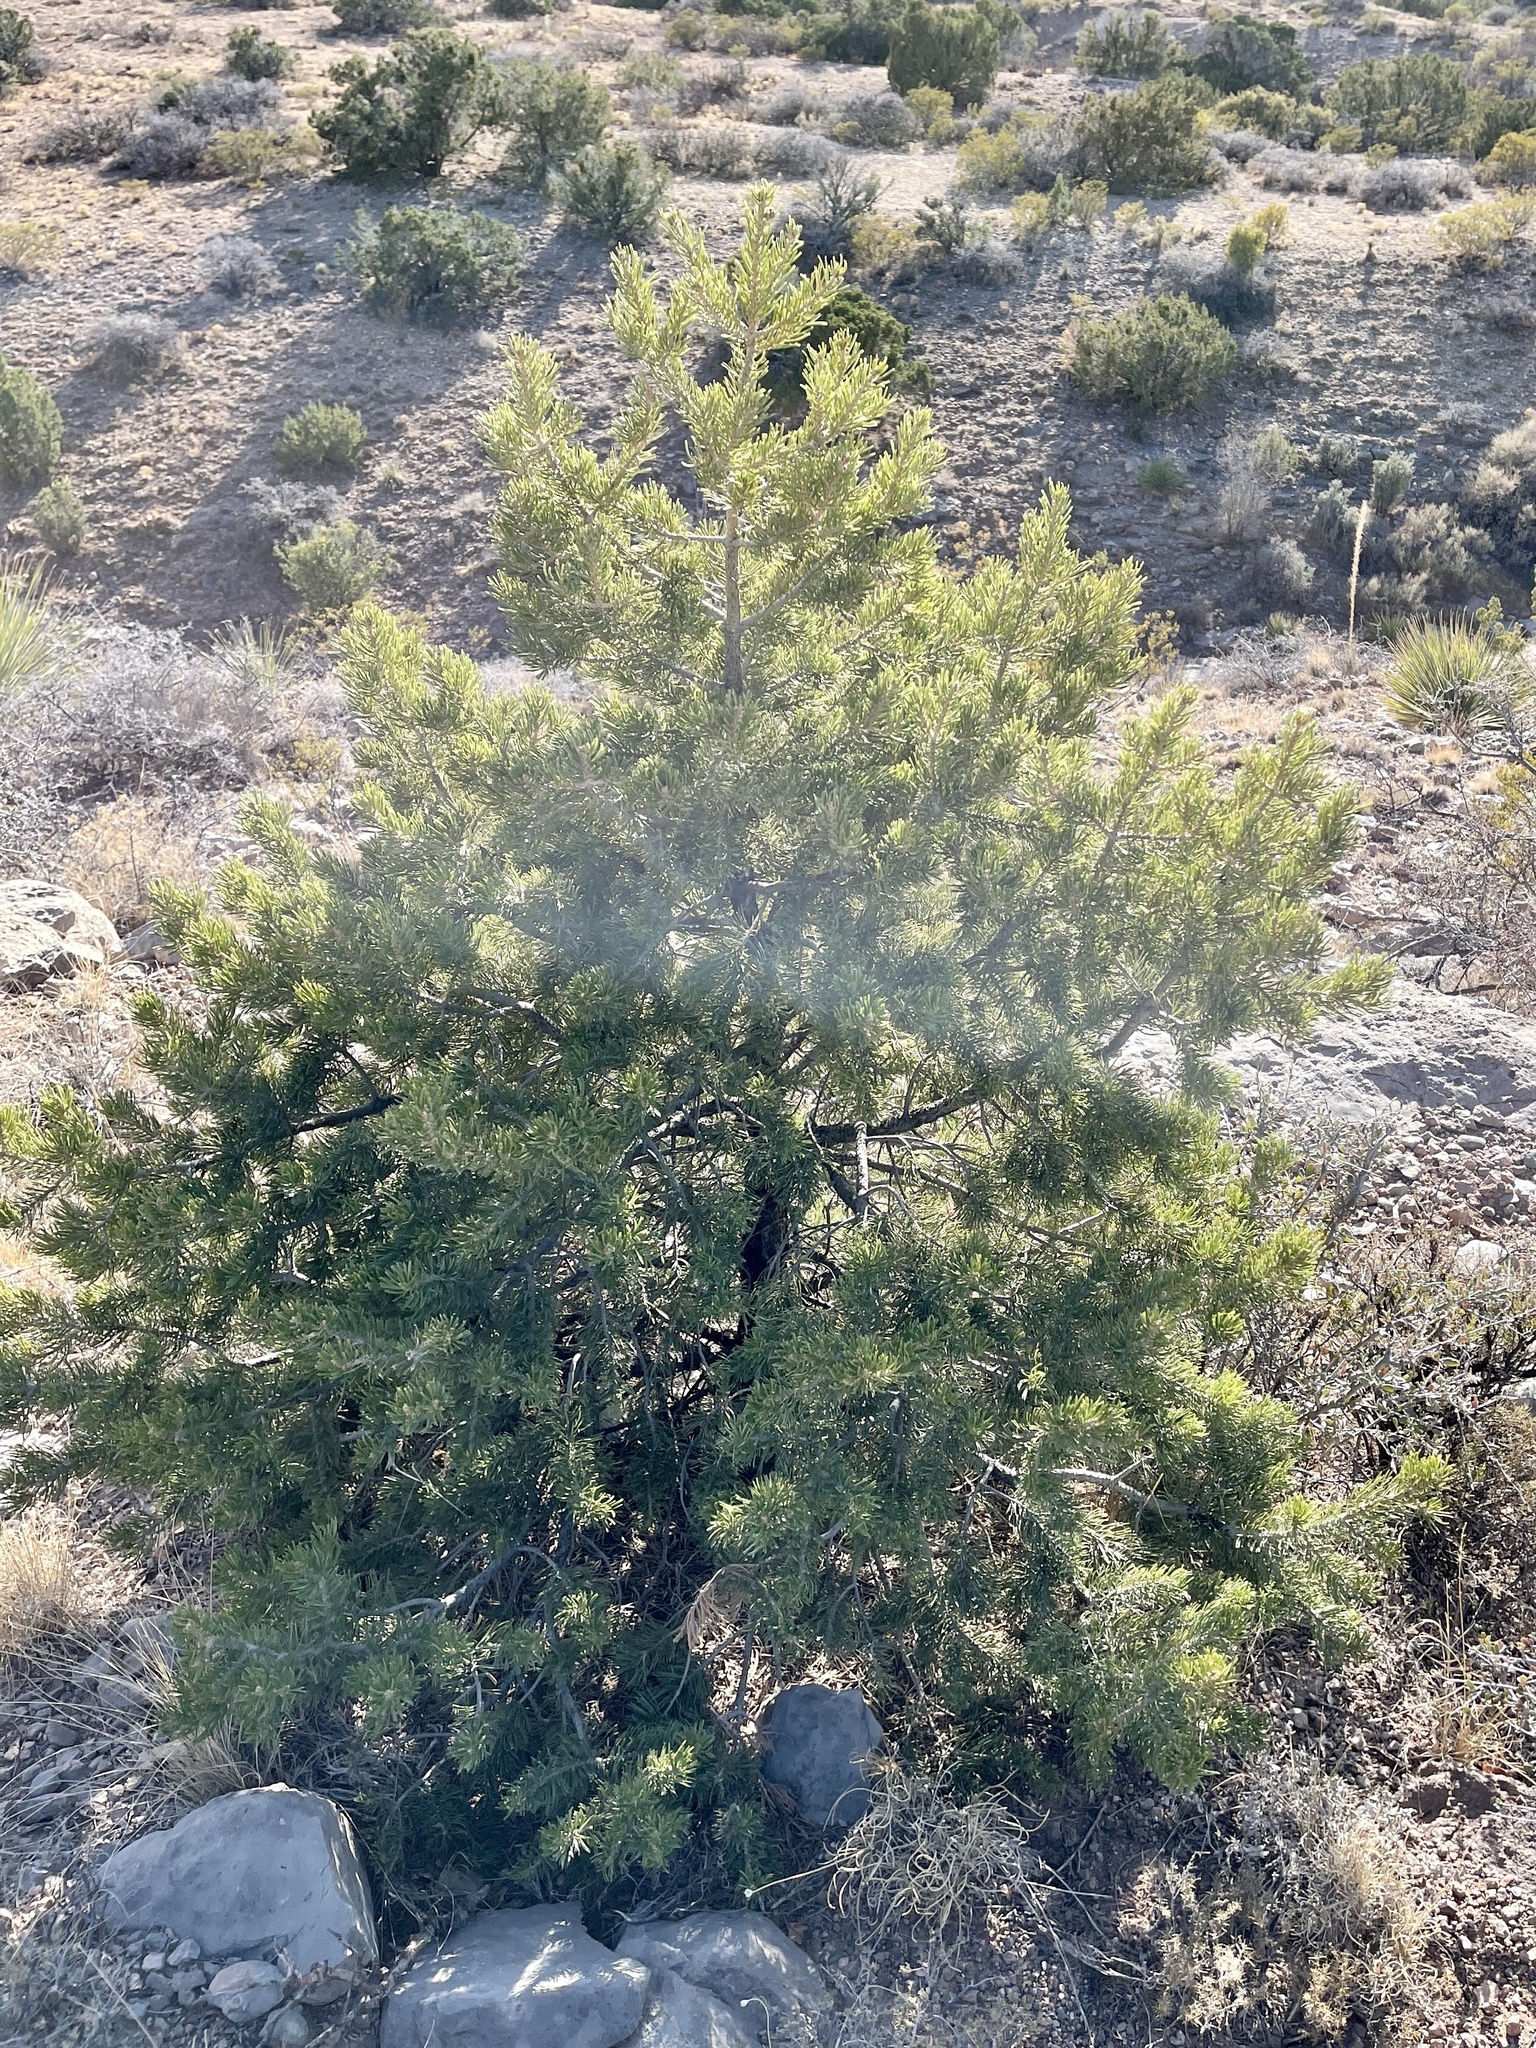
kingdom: Plantae
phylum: Tracheophyta
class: Pinopsida
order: Pinales
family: Pinaceae
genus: Pinus
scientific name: Pinus edulis
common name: Colorado pinyon
